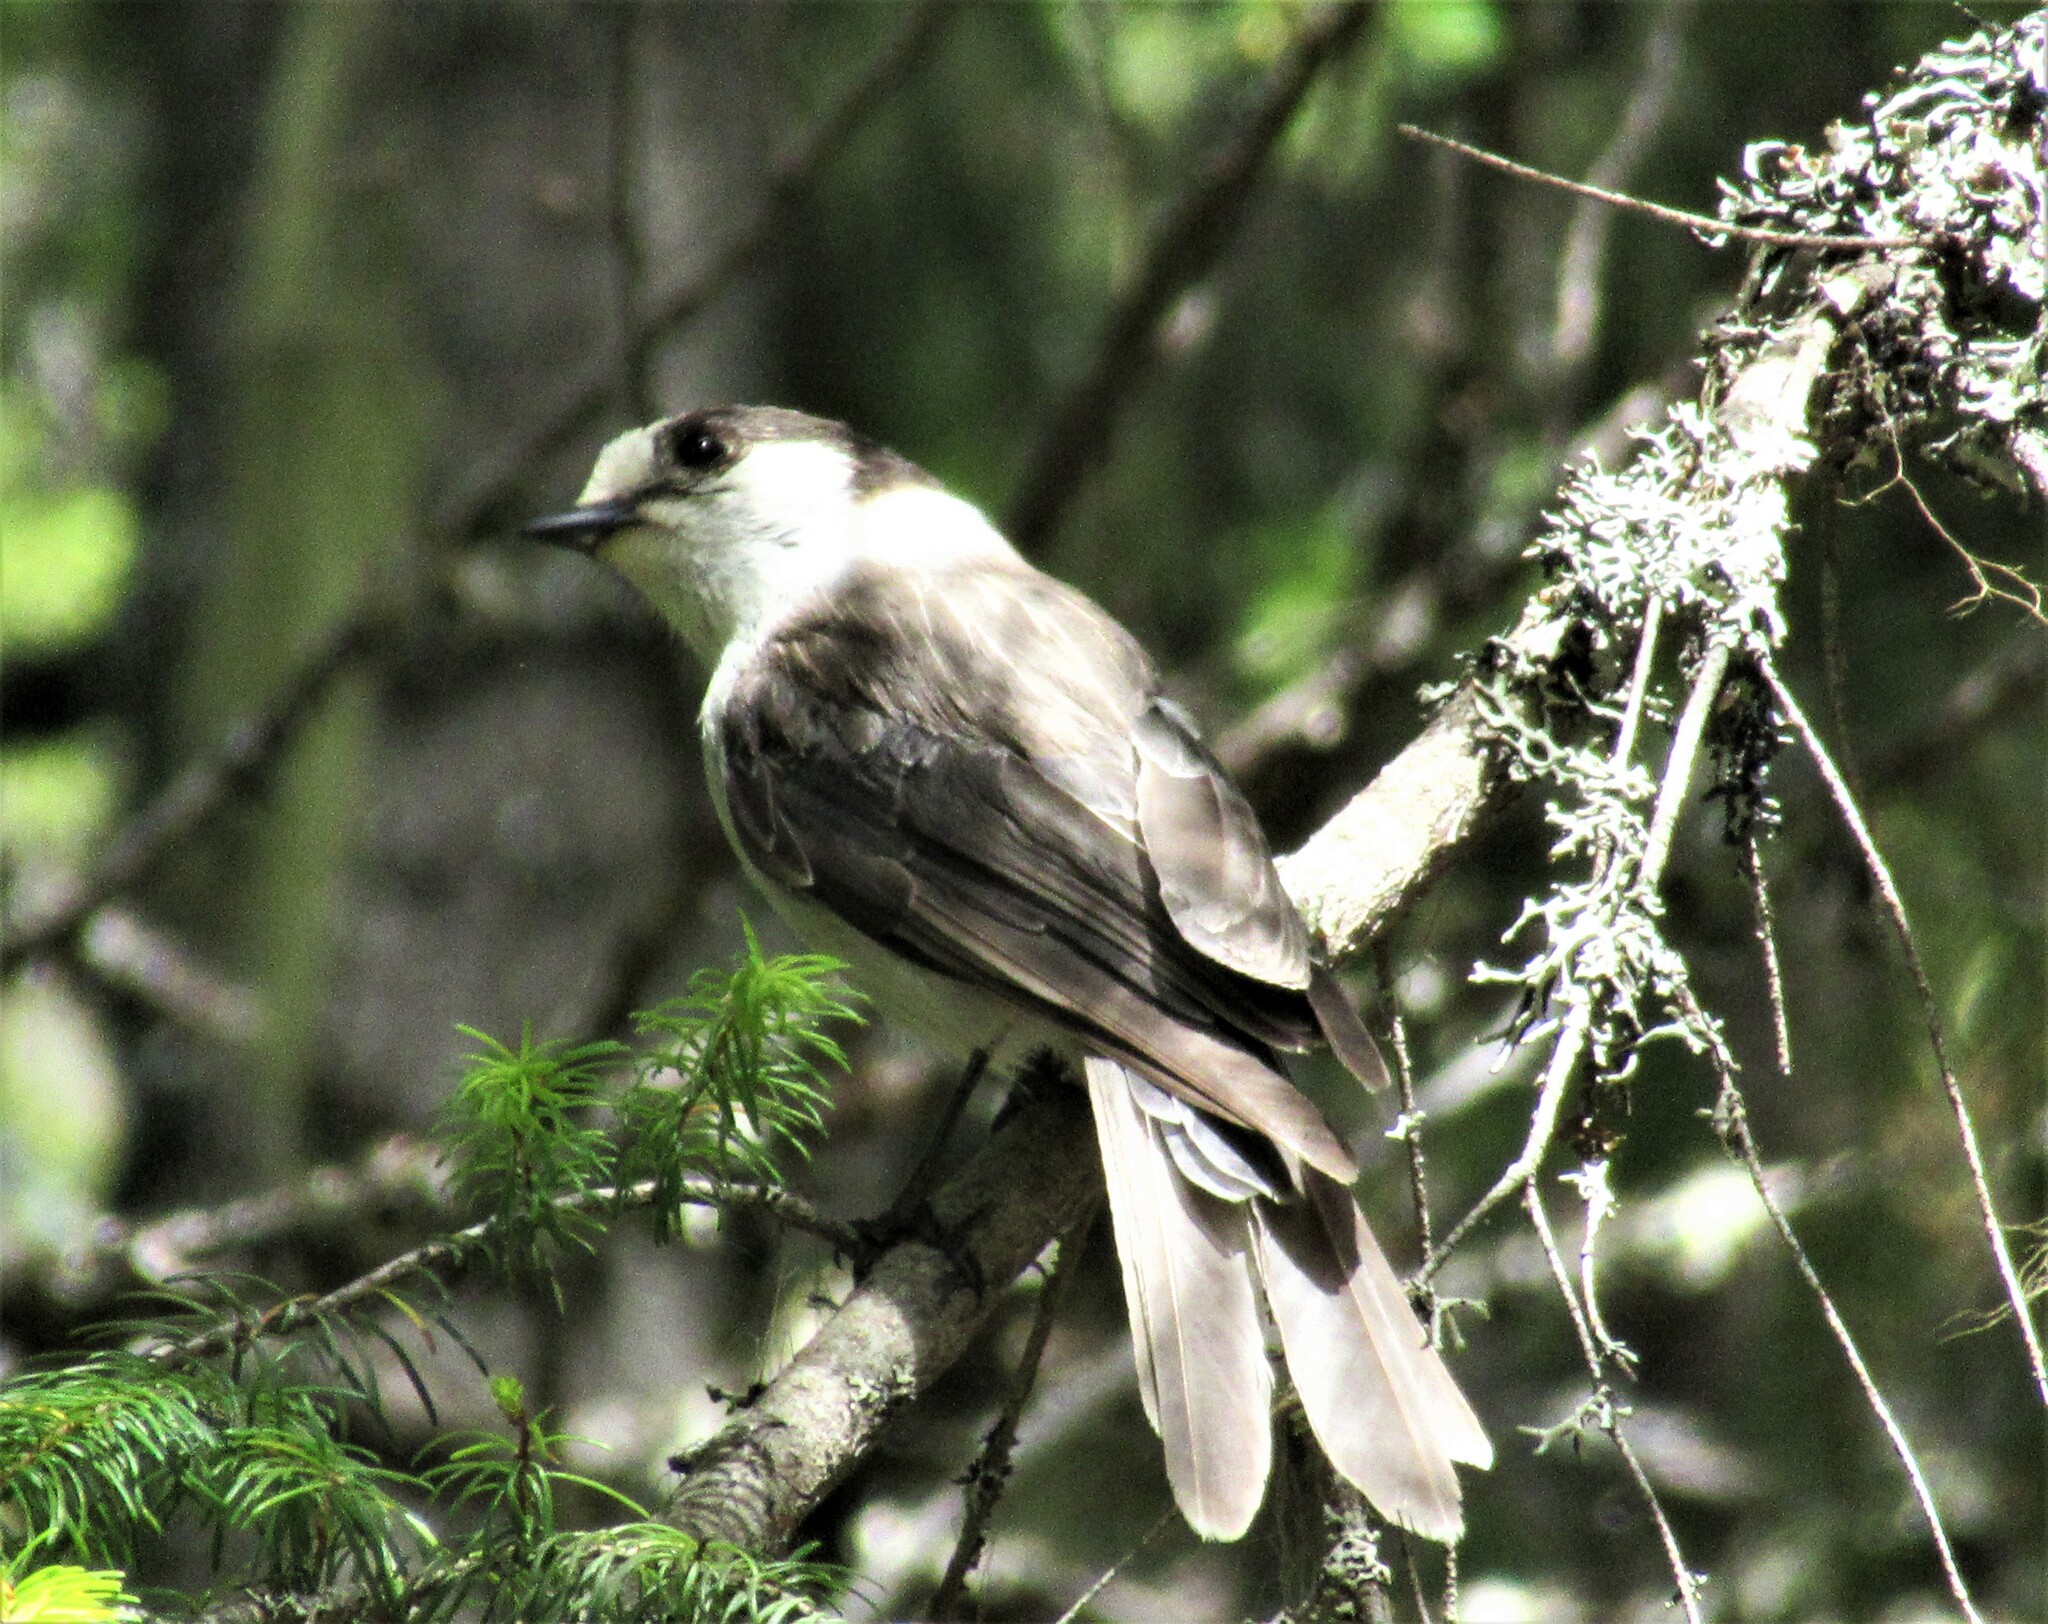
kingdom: Animalia
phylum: Chordata
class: Aves
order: Passeriformes
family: Corvidae
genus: Perisoreus
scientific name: Perisoreus canadensis
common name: Gray jay
